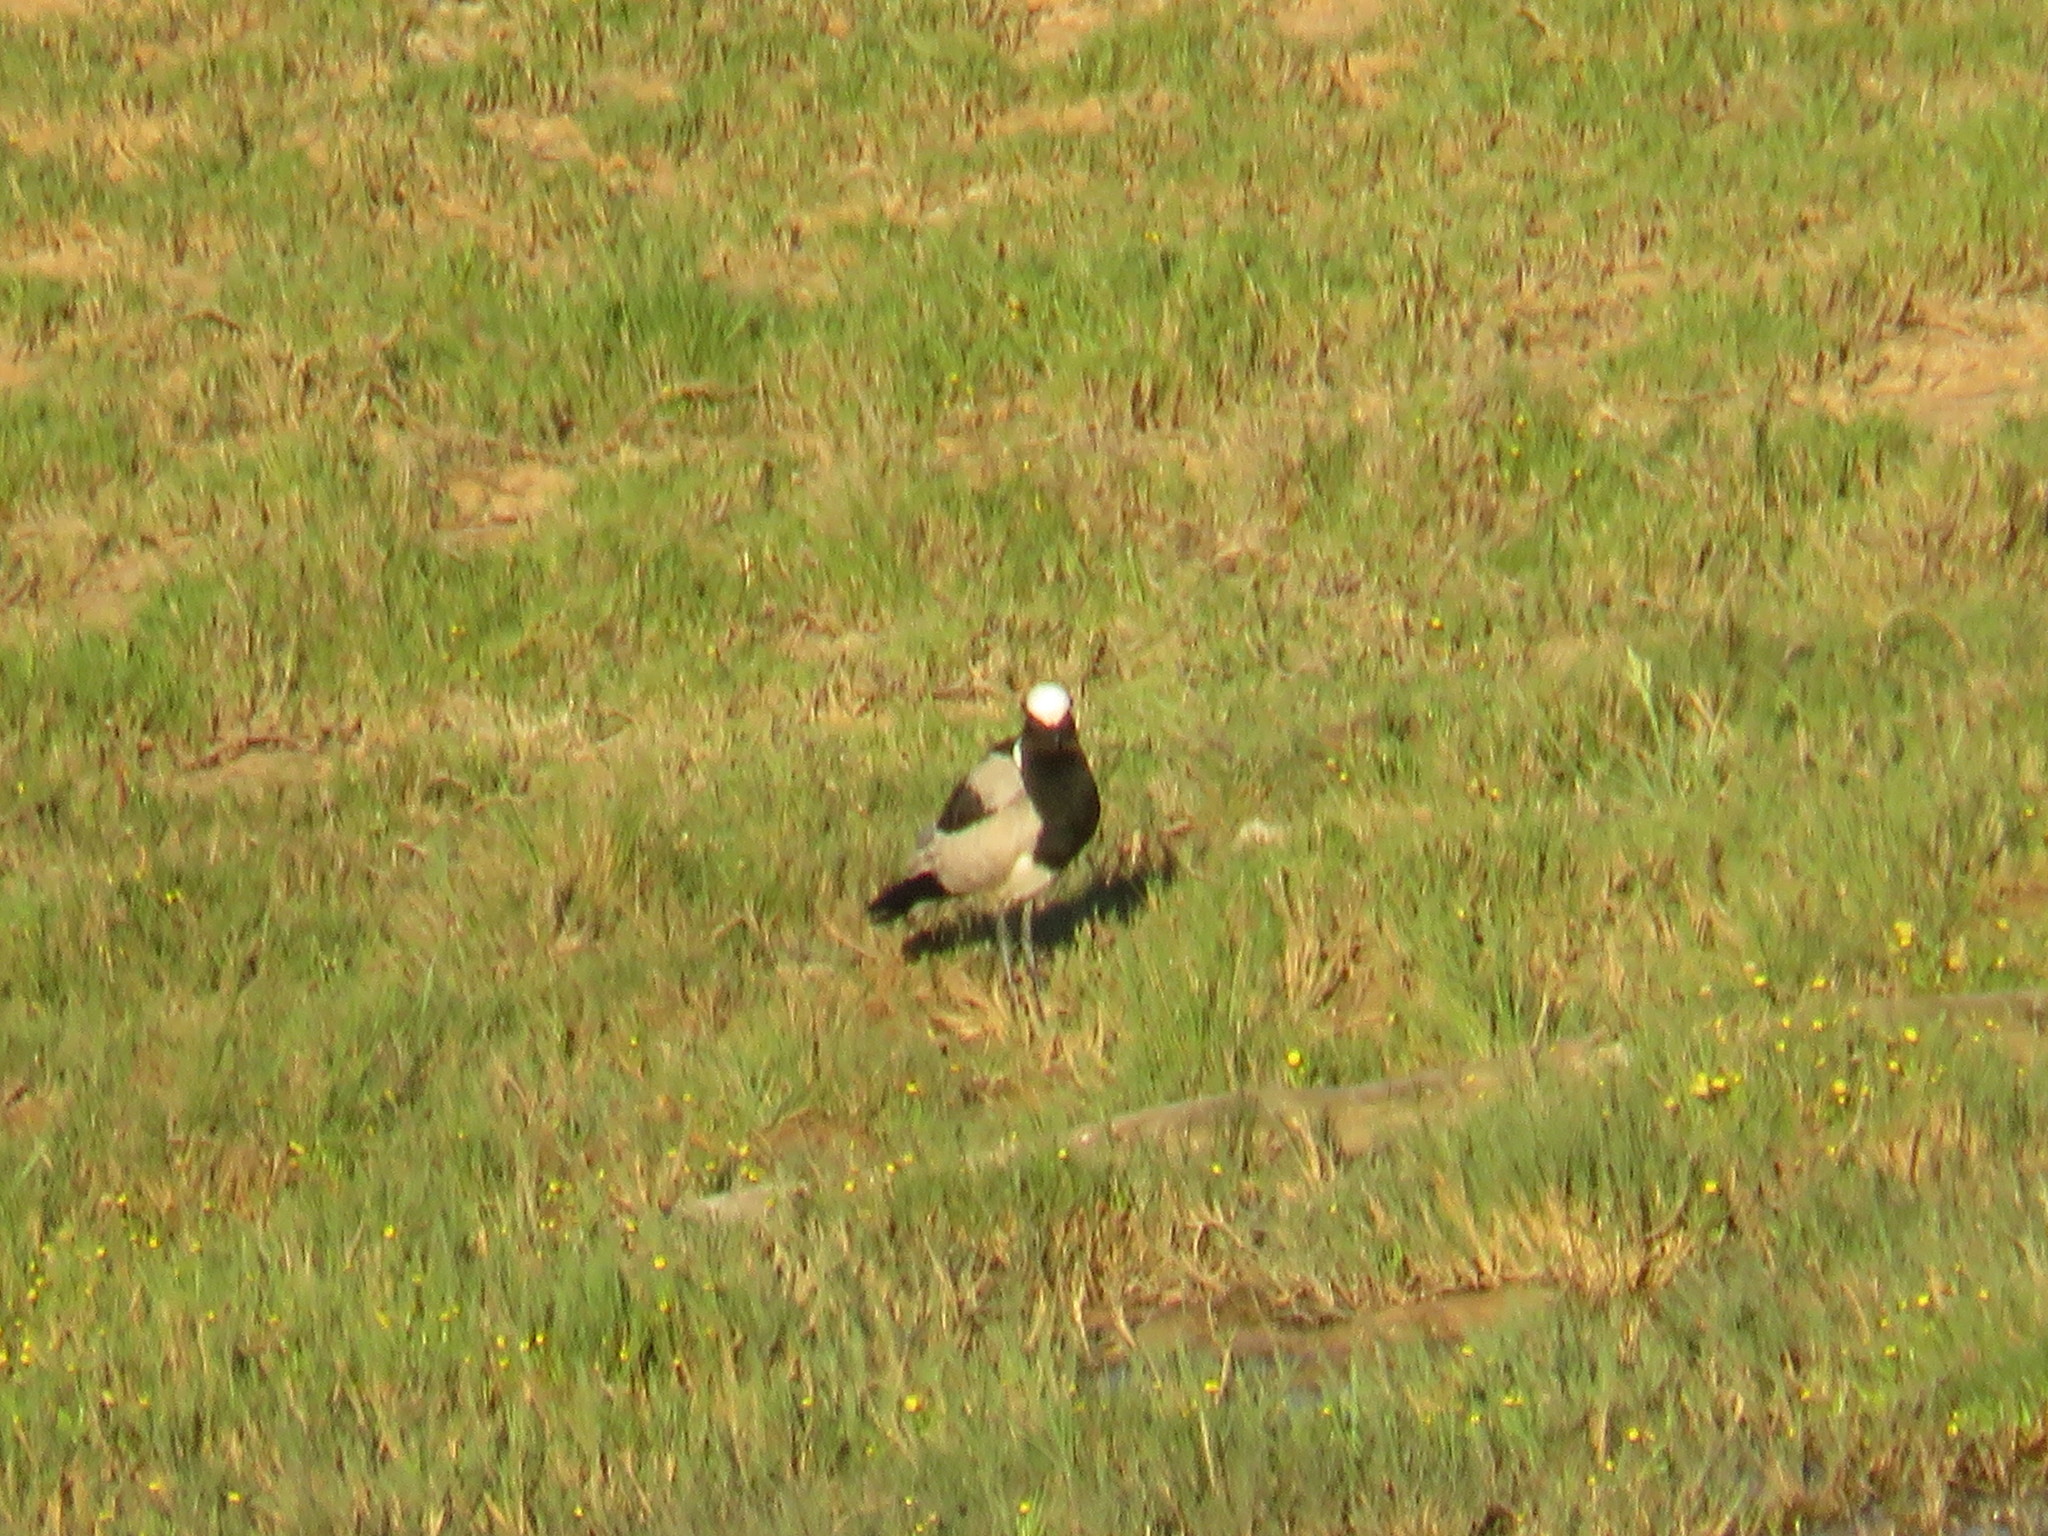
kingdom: Animalia
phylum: Chordata
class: Aves
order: Charadriiformes
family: Charadriidae
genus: Vanellus
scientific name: Vanellus armatus
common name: Blacksmith lapwing
